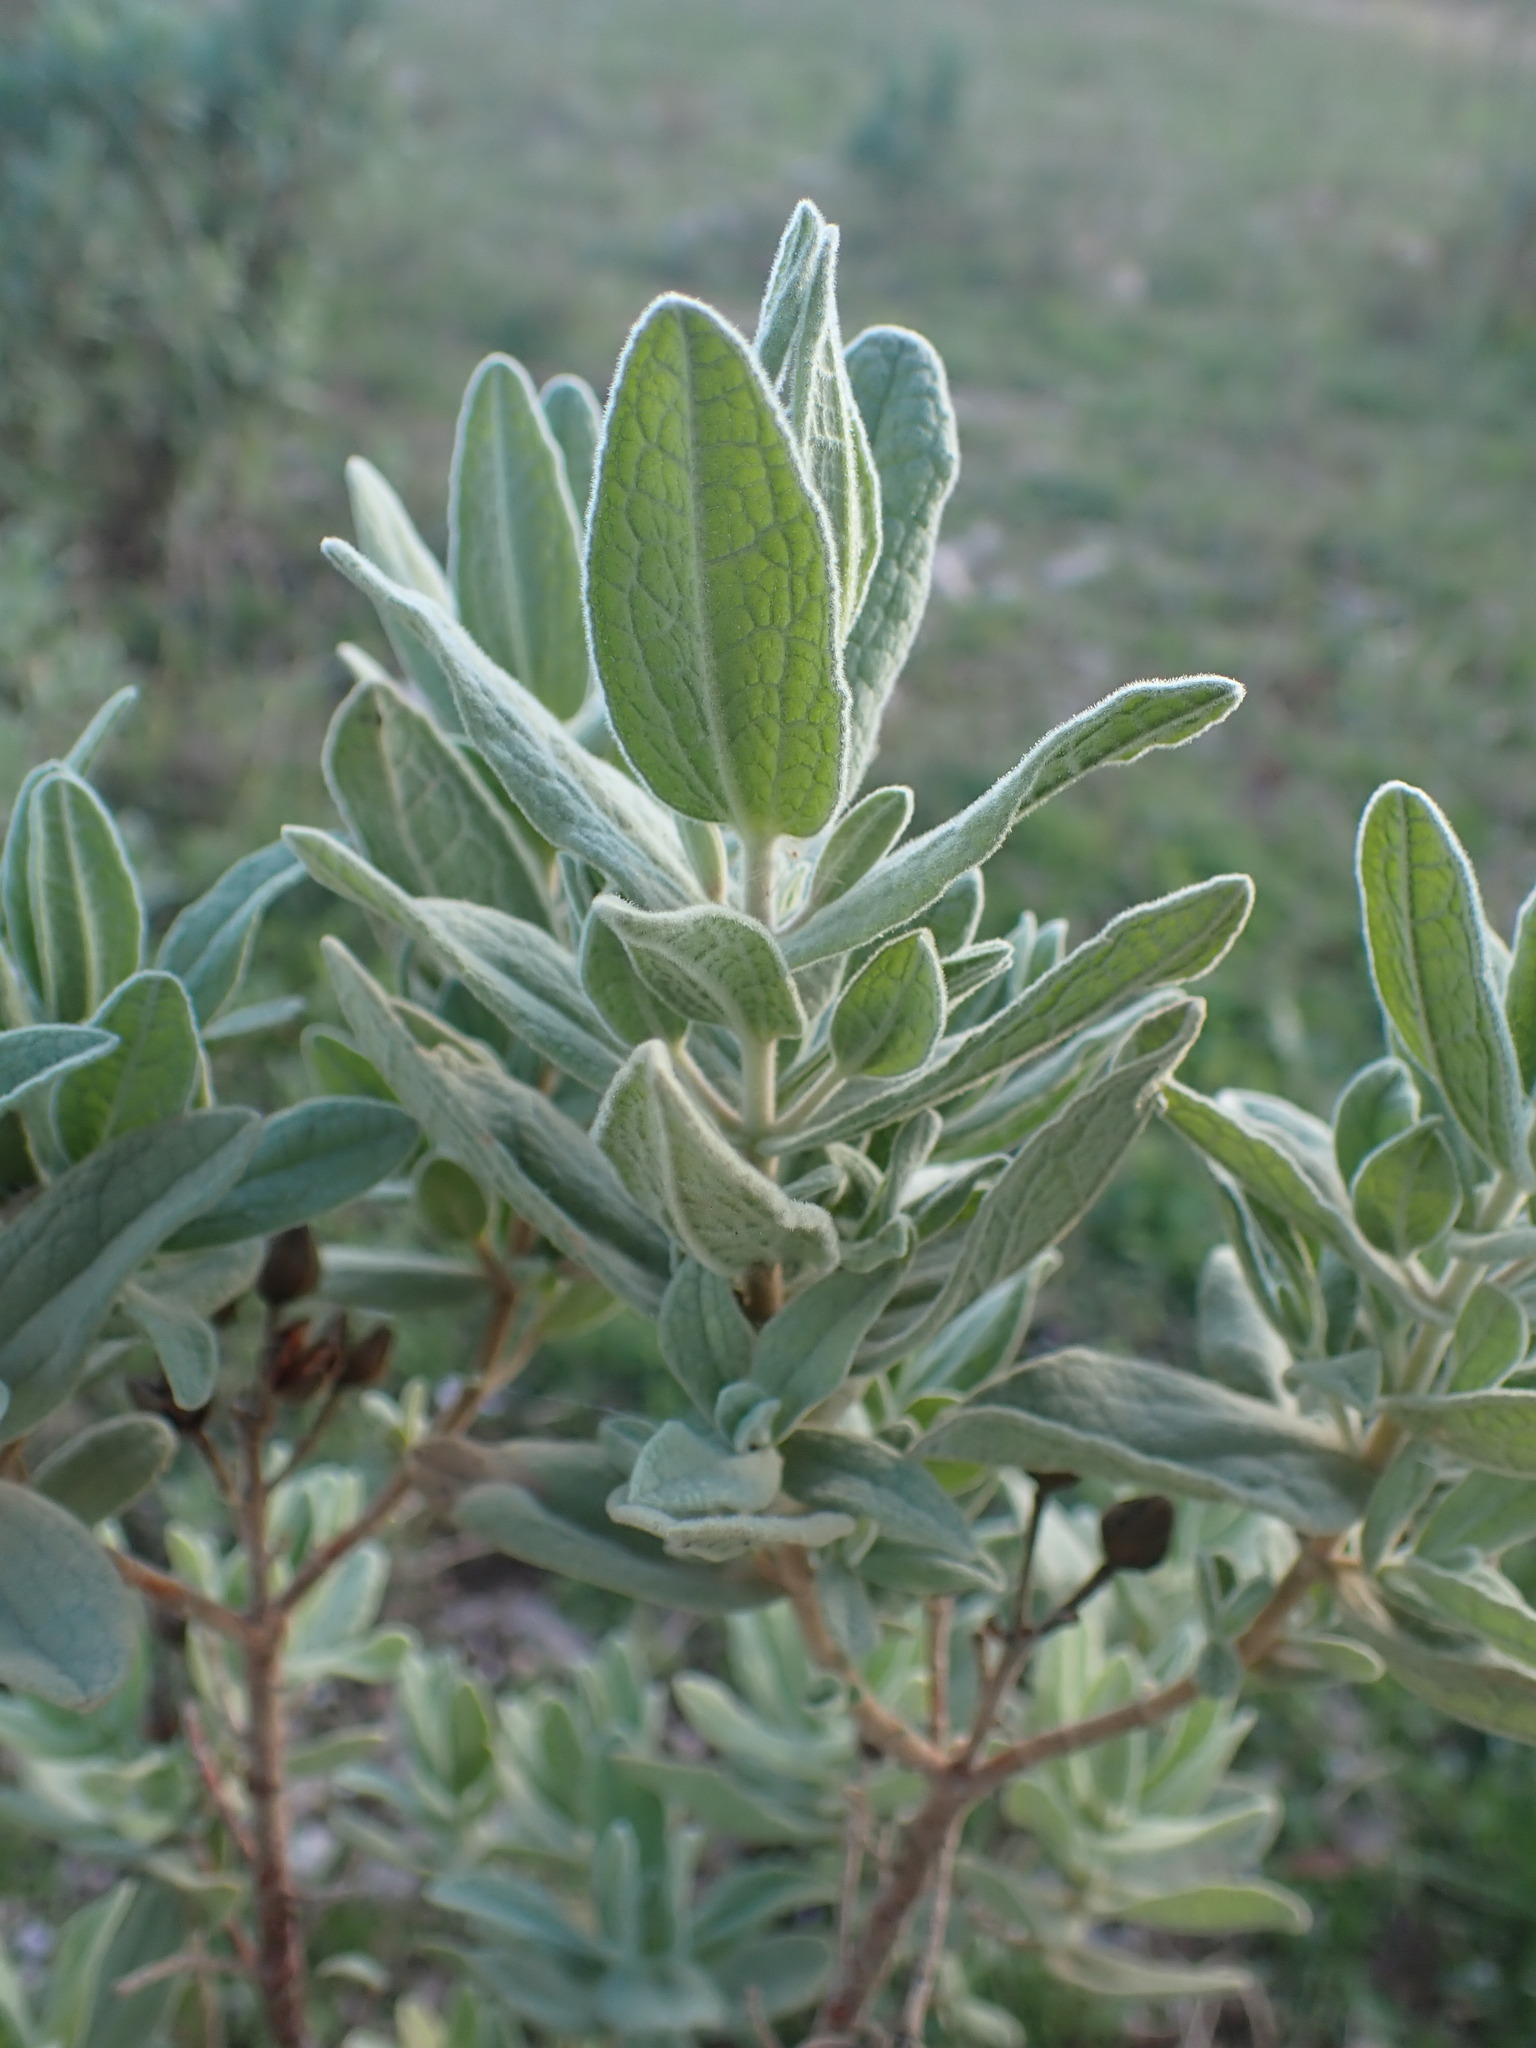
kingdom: Plantae
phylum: Tracheophyta
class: Magnoliopsida
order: Malvales
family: Cistaceae
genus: Cistus
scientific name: Cistus albidus
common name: White-leaf rock-rose
